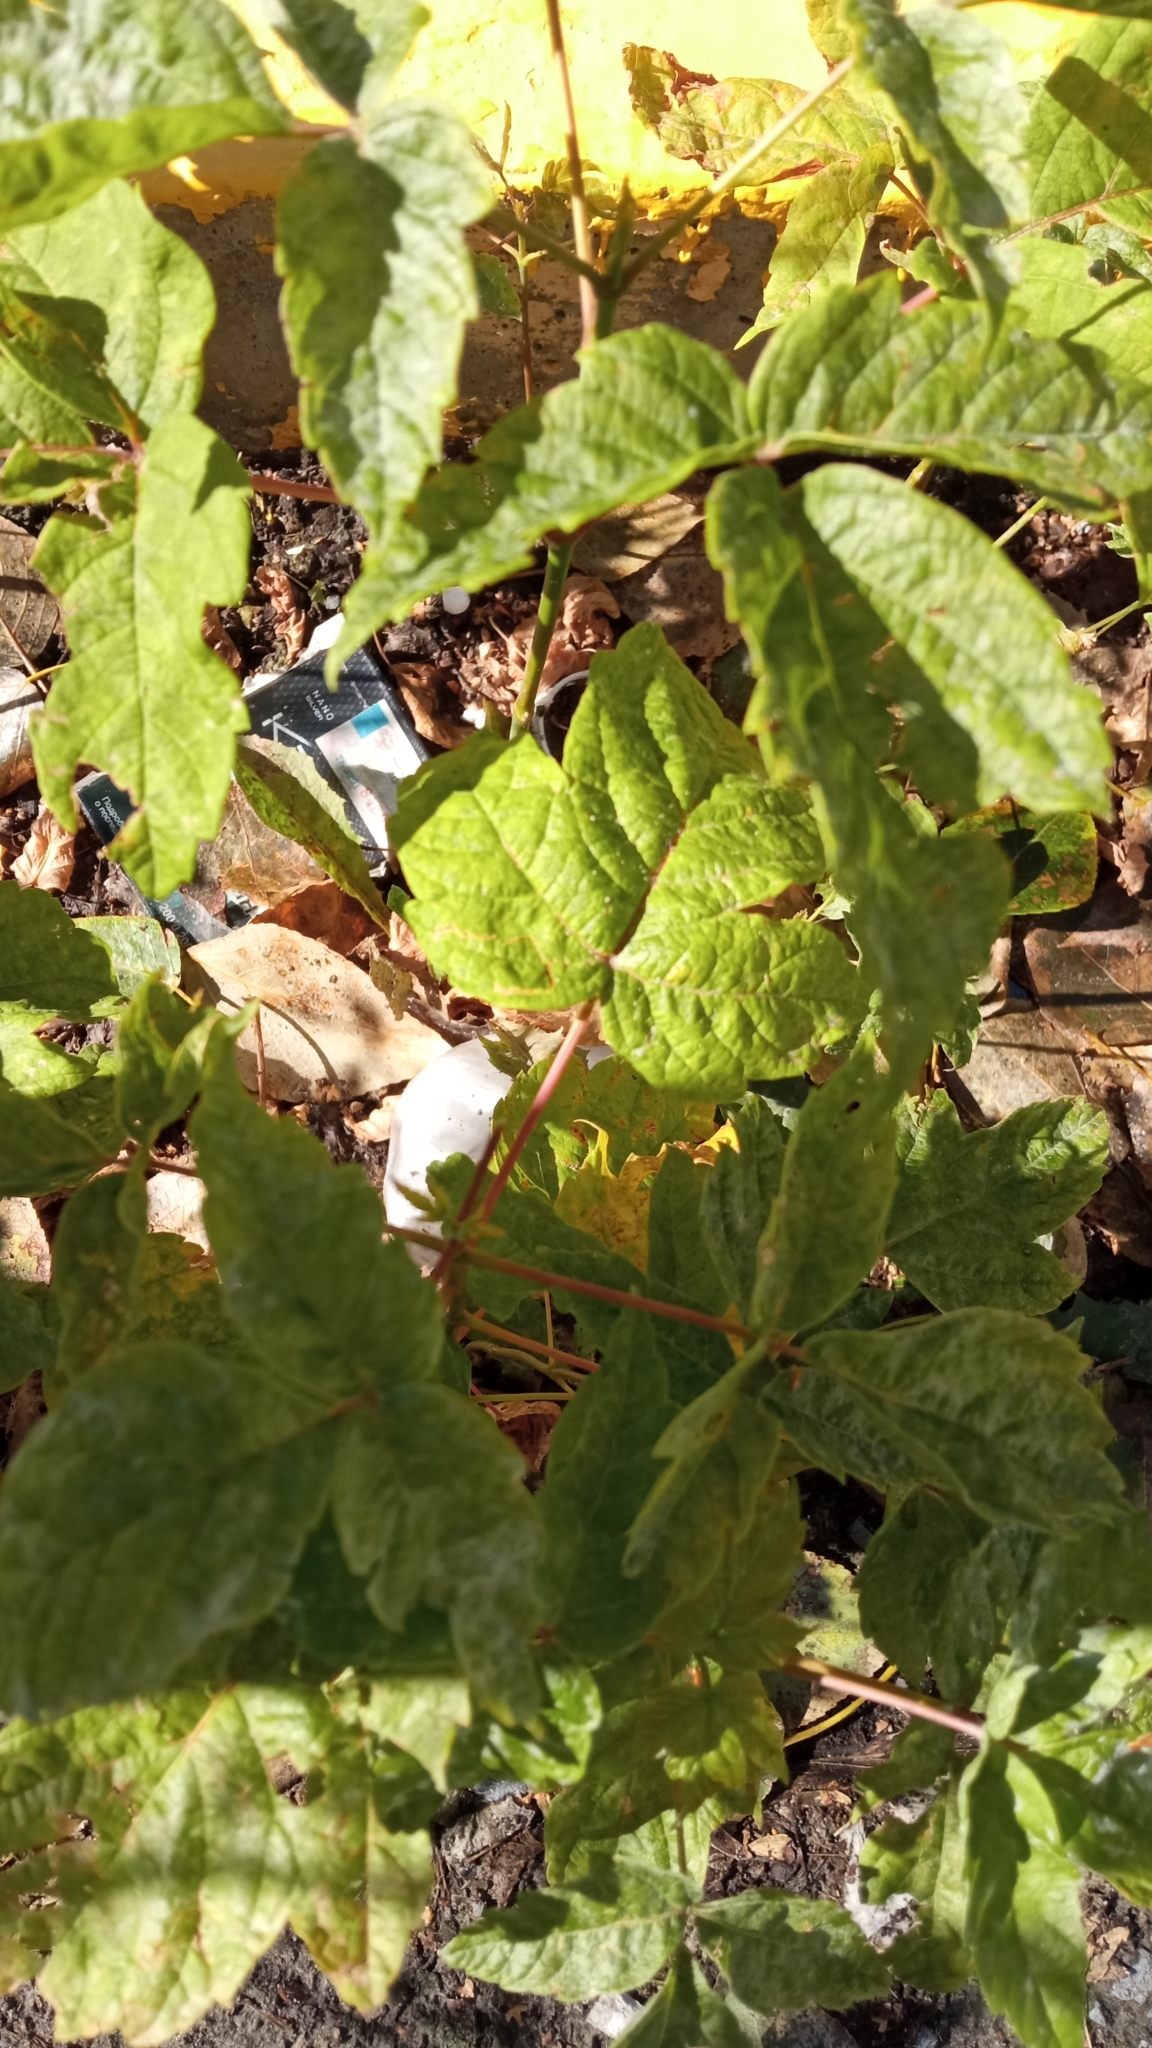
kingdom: Plantae
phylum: Tracheophyta
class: Magnoliopsida
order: Sapindales
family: Sapindaceae
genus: Acer
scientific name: Acer negundo
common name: Ashleaf maple
